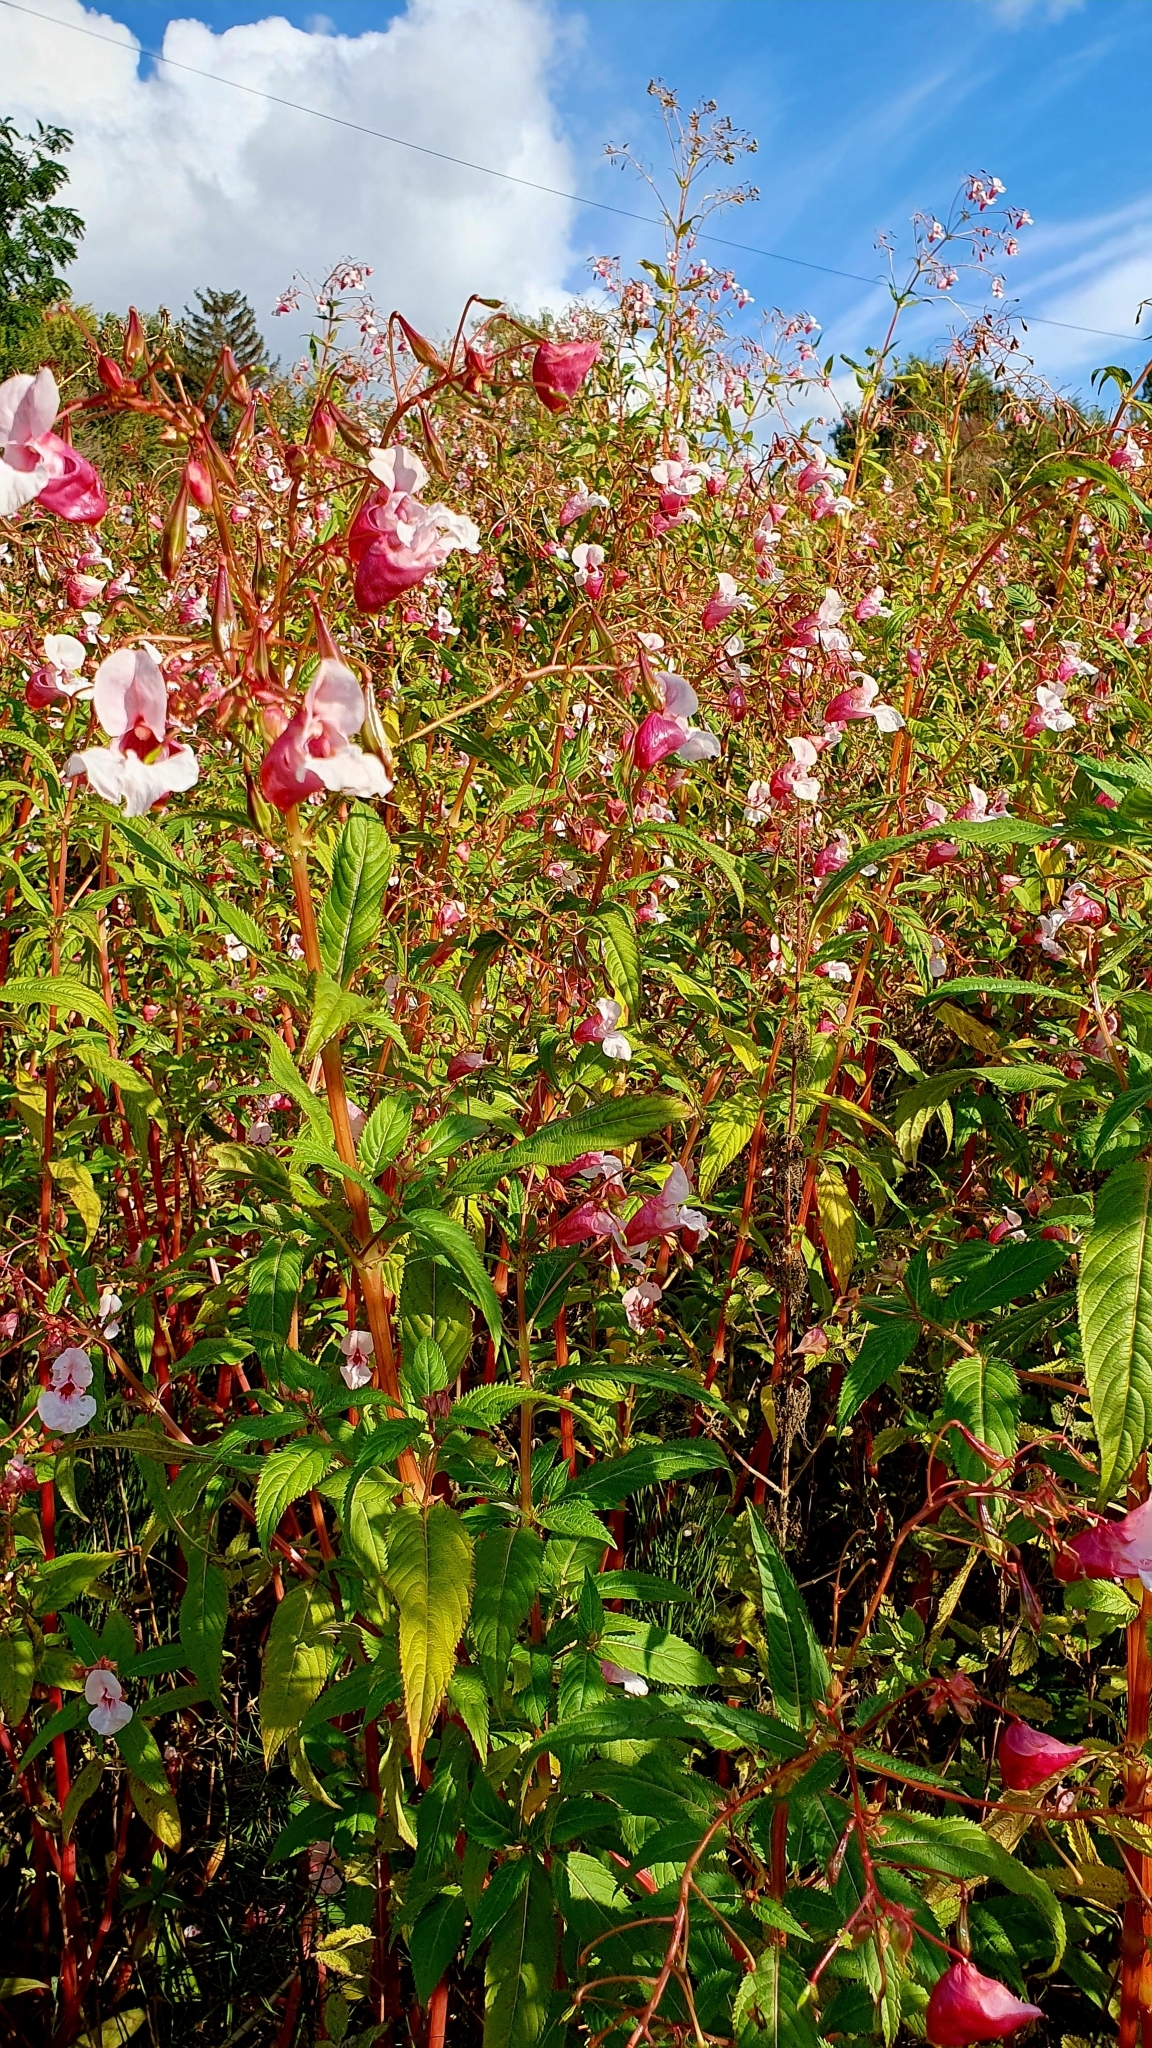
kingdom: Plantae
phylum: Tracheophyta
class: Magnoliopsida
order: Ericales
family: Balsaminaceae
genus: Impatiens
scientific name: Impatiens glandulifera
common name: Himalayan balsam
